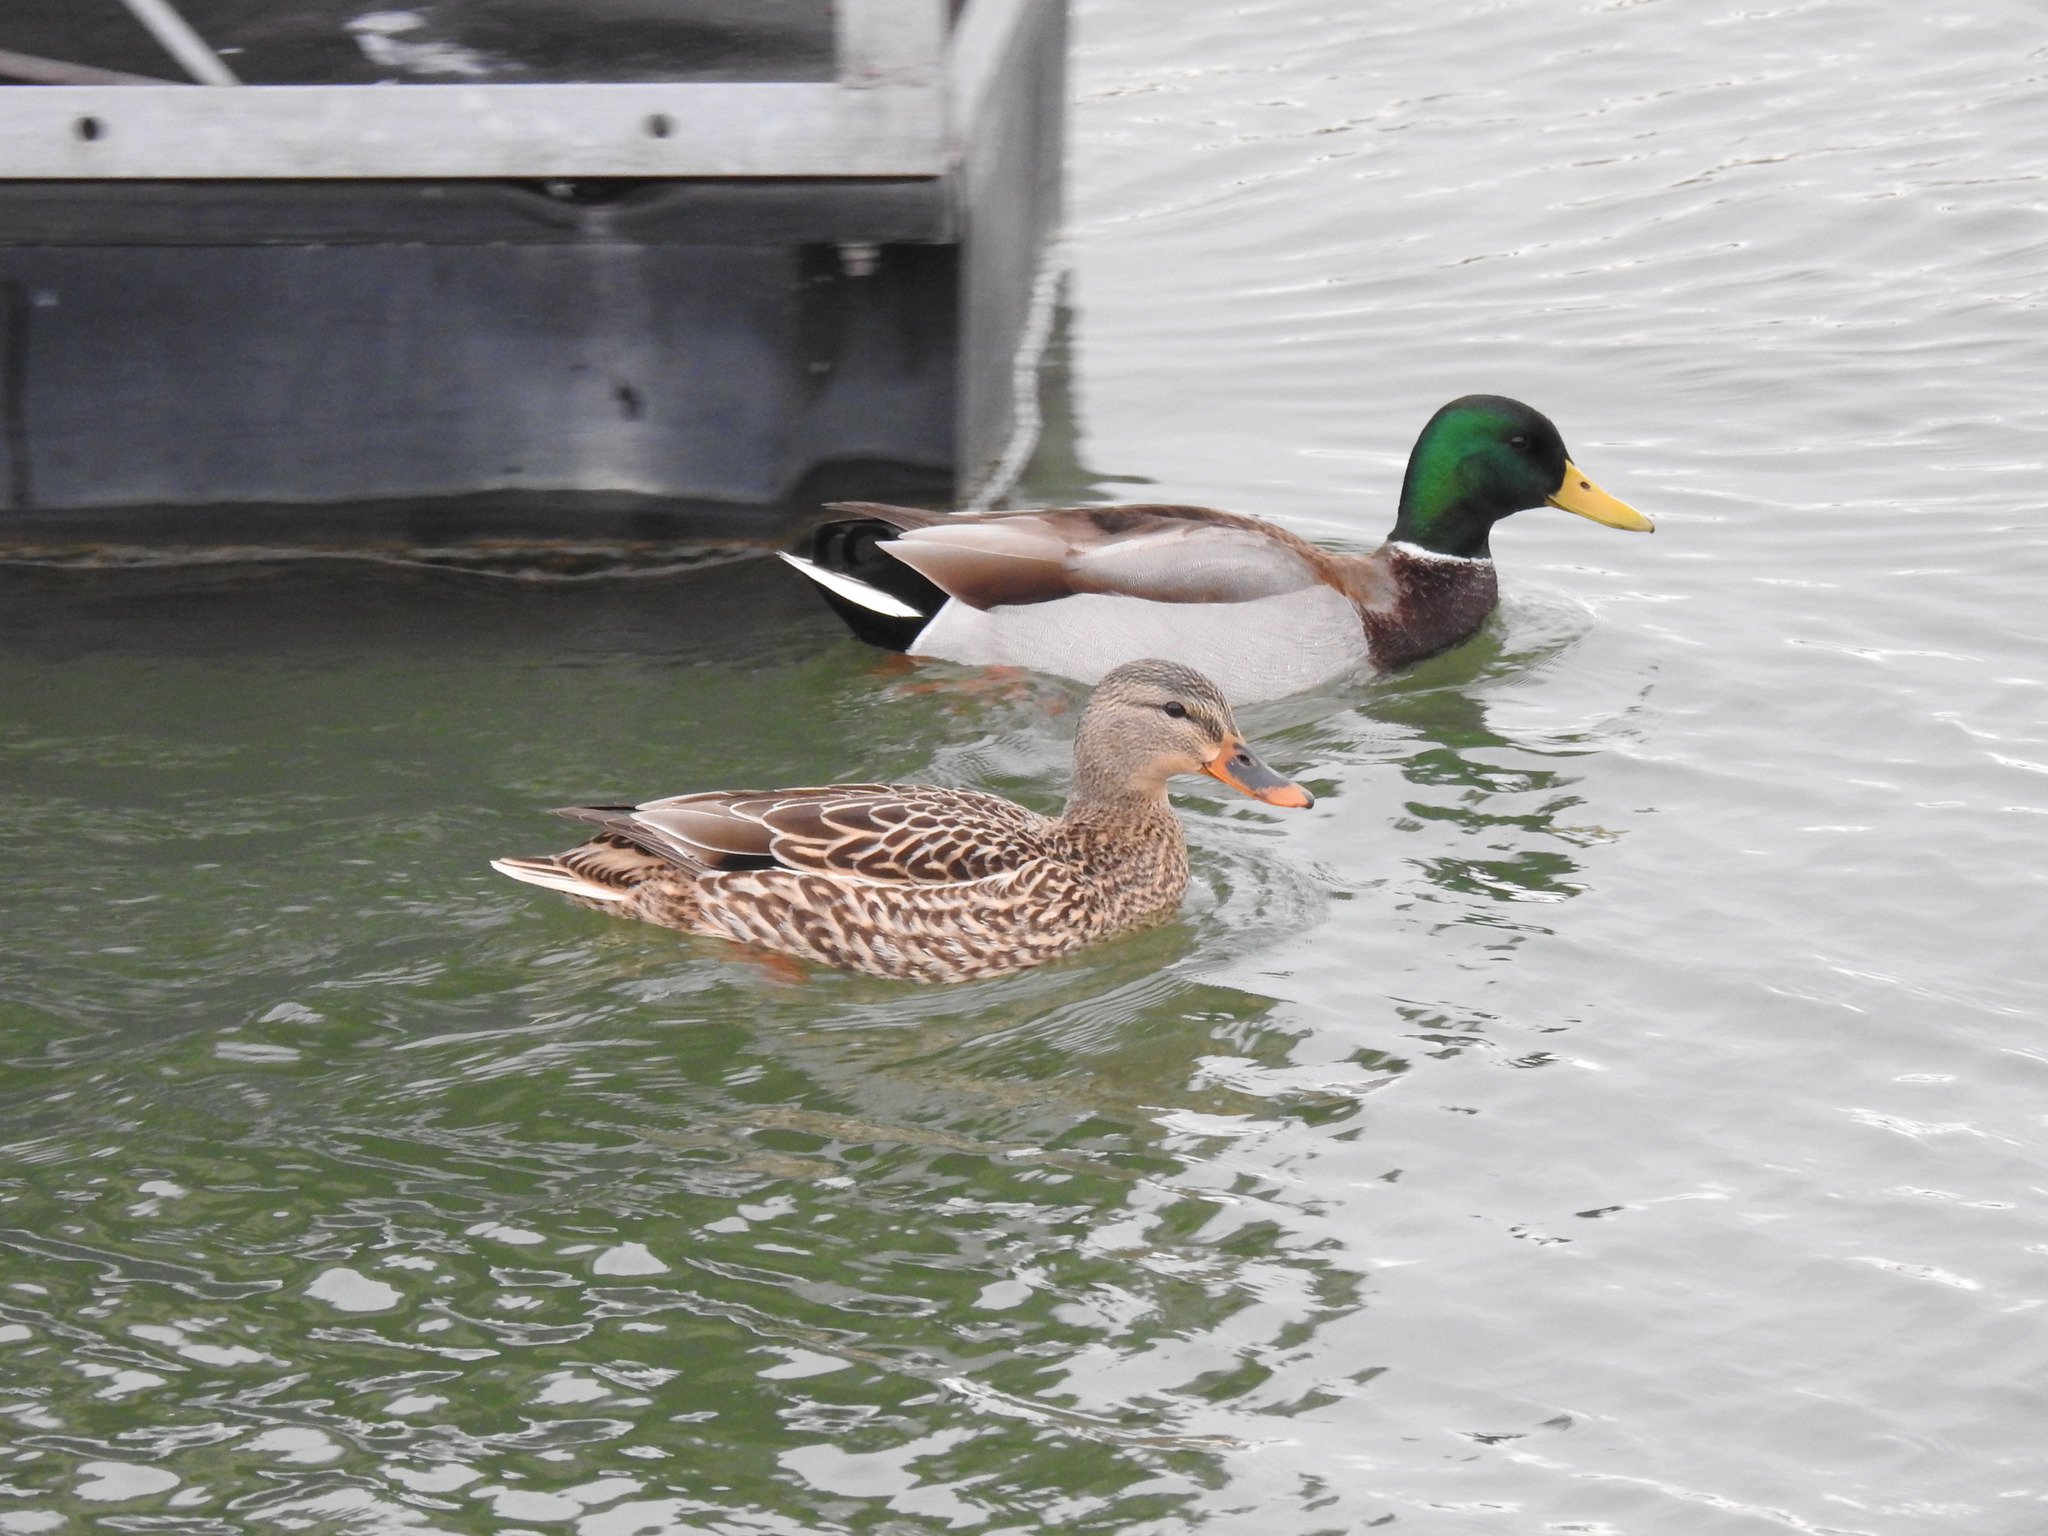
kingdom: Animalia
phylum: Chordata
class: Aves
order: Anseriformes
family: Anatidae
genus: Anas
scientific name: Anas platyrhynchos
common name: Mallard
